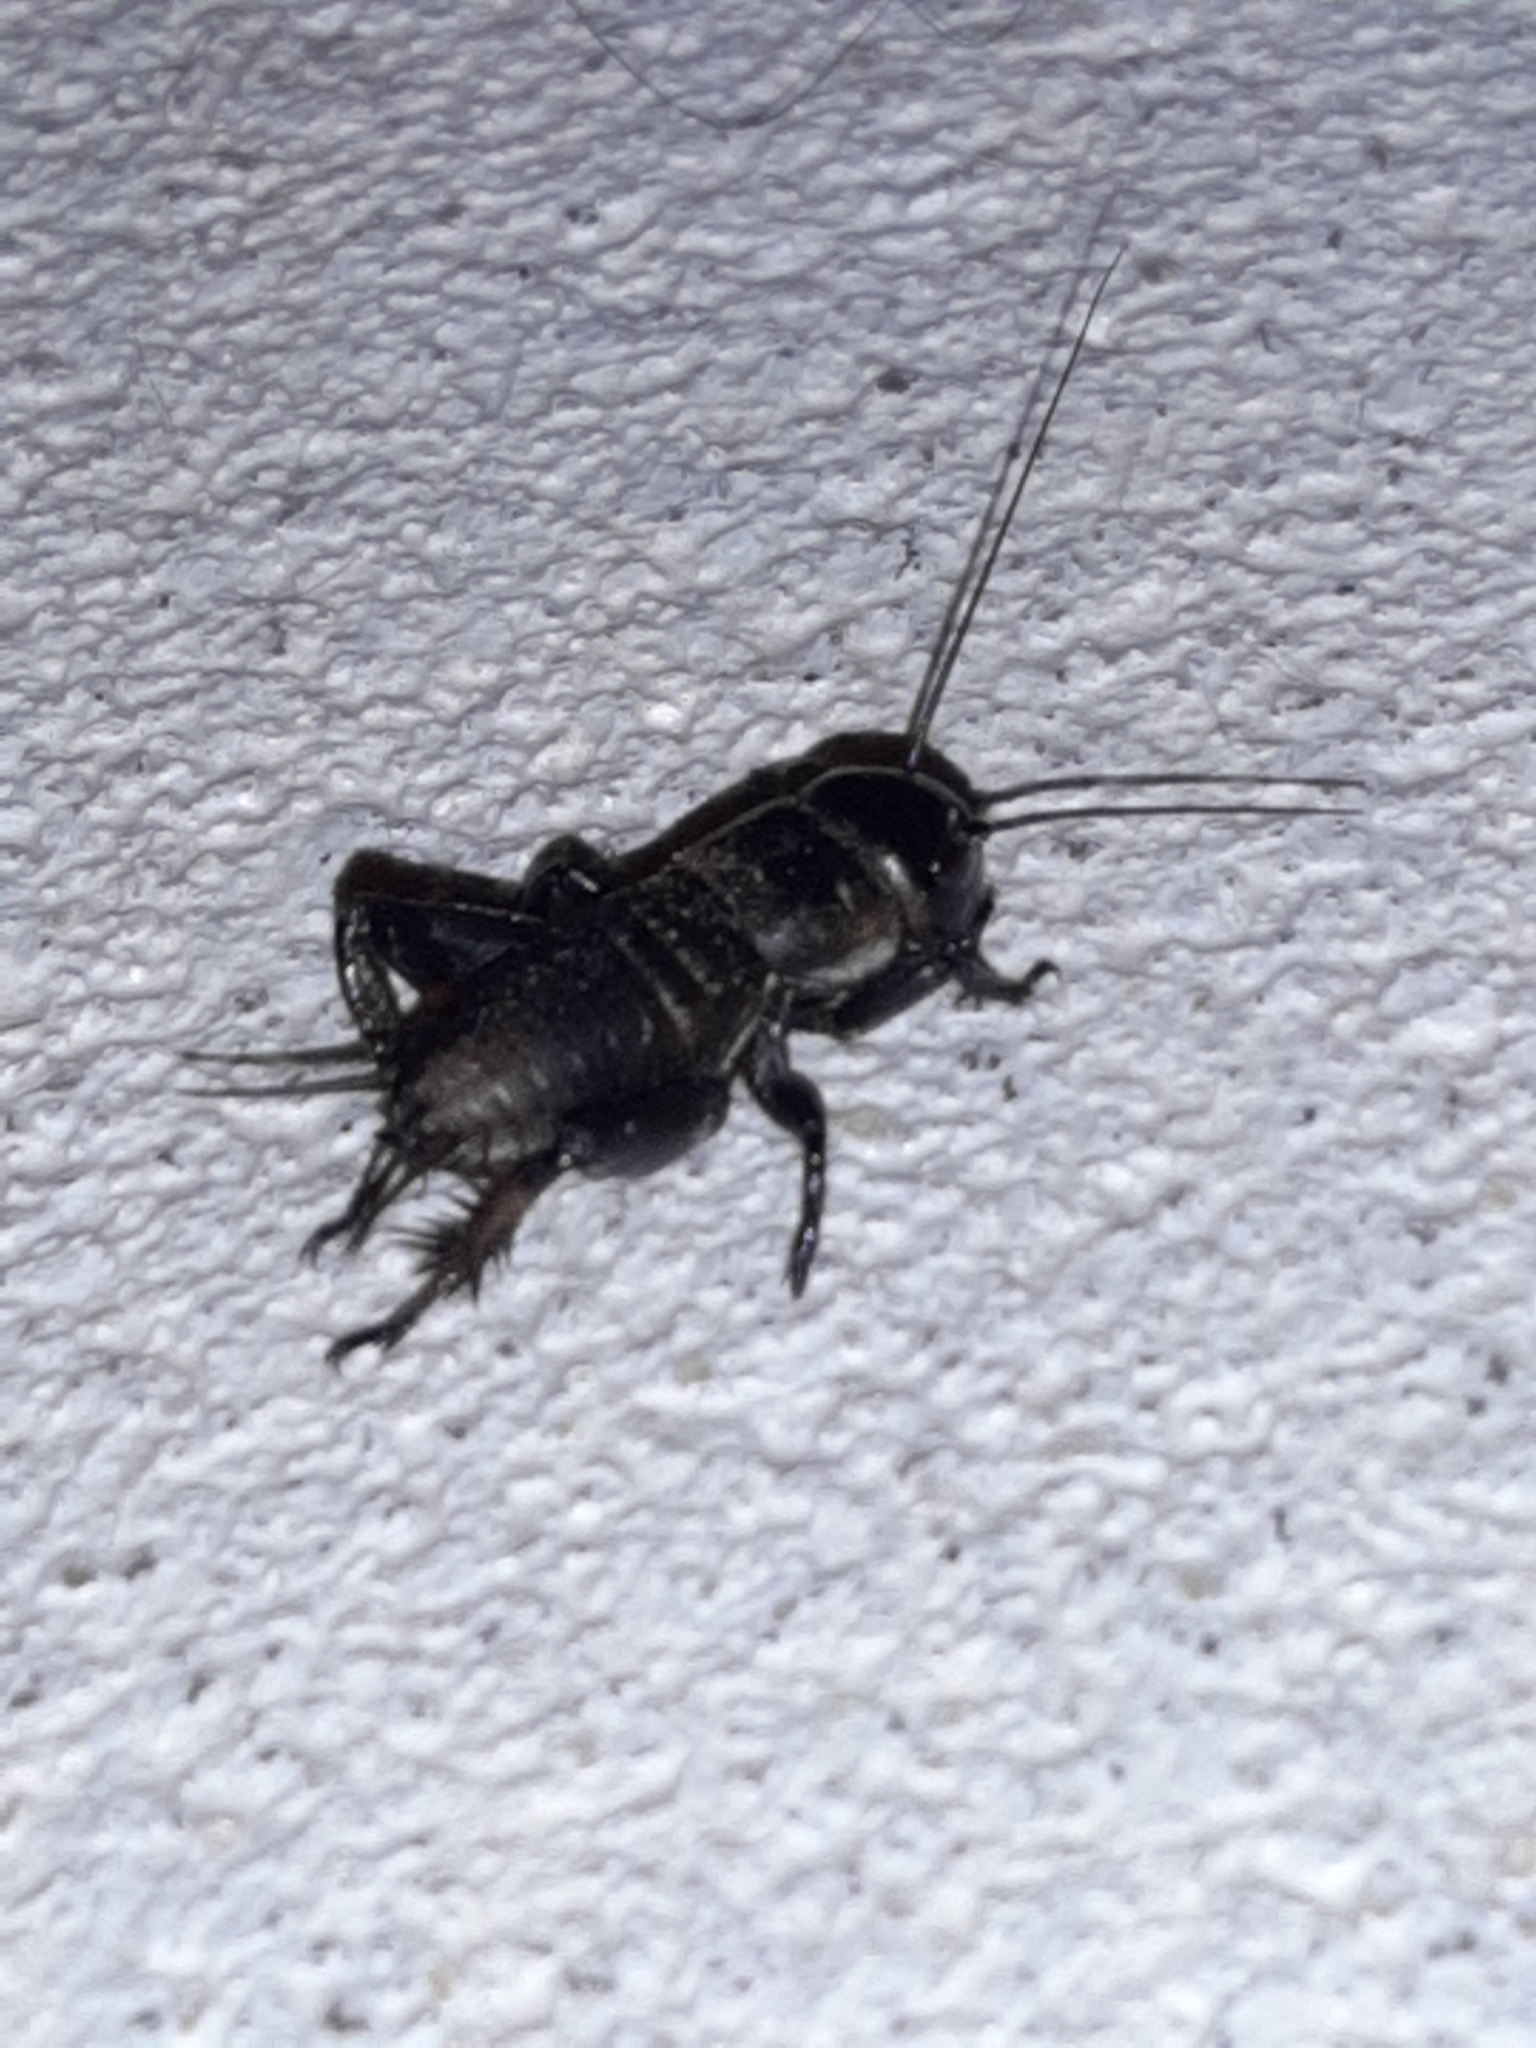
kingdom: Animalia
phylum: Arthropoda
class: Insecta
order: Orthoptera
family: Gryllidae
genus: Gryllus
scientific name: Gryllus campestris
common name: Field cricket
